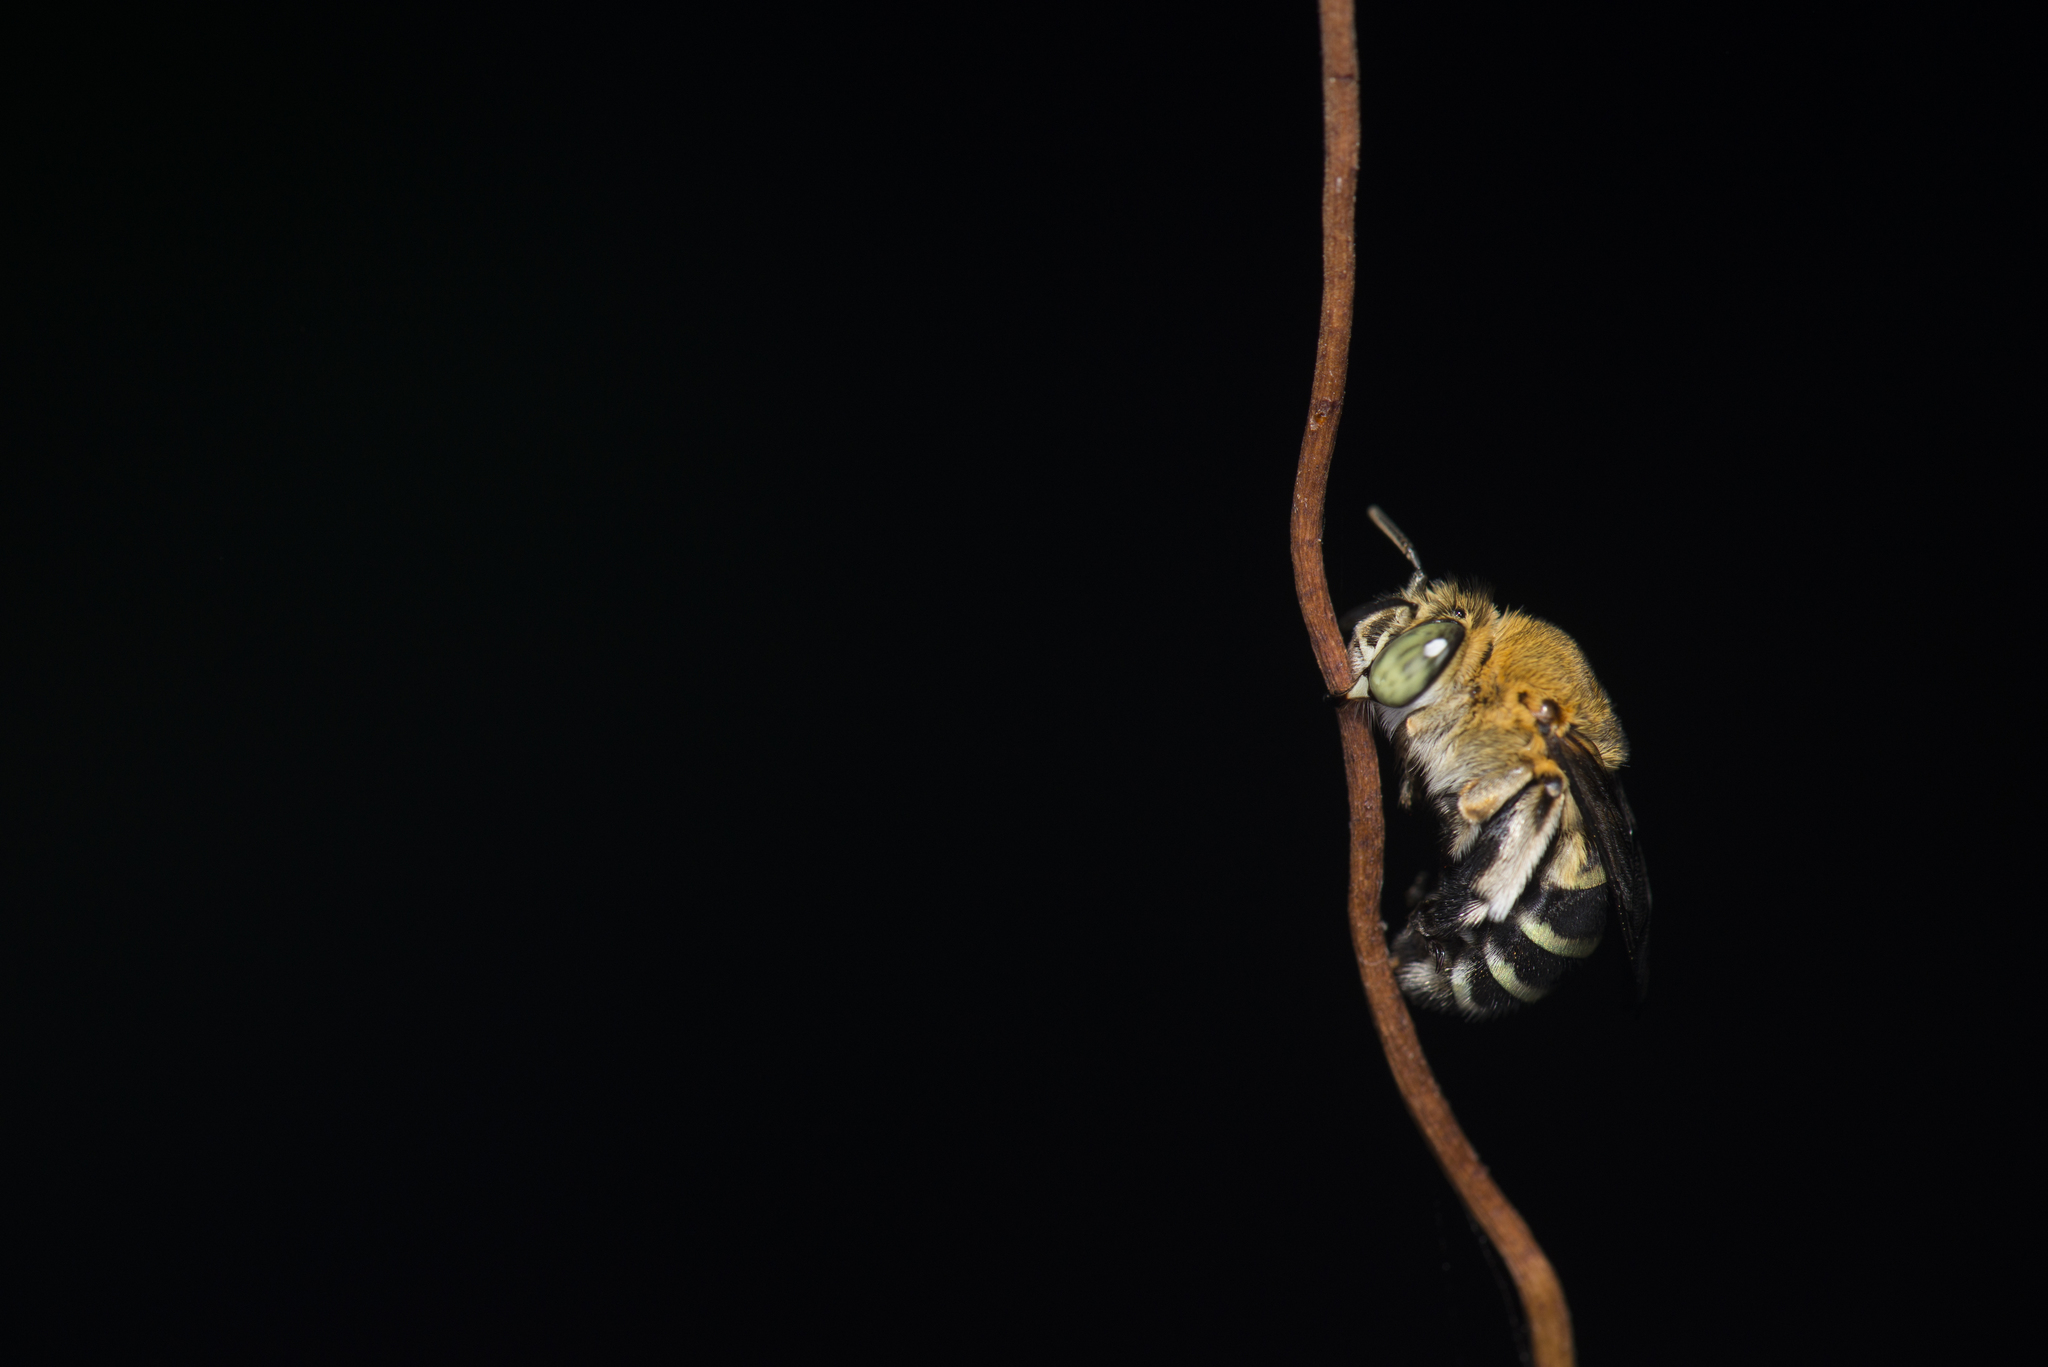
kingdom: Animalia
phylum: Arthropoda
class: Insecta
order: Hymenoptera
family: Apidae
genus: Amegilla
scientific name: Amegilla calceifera
